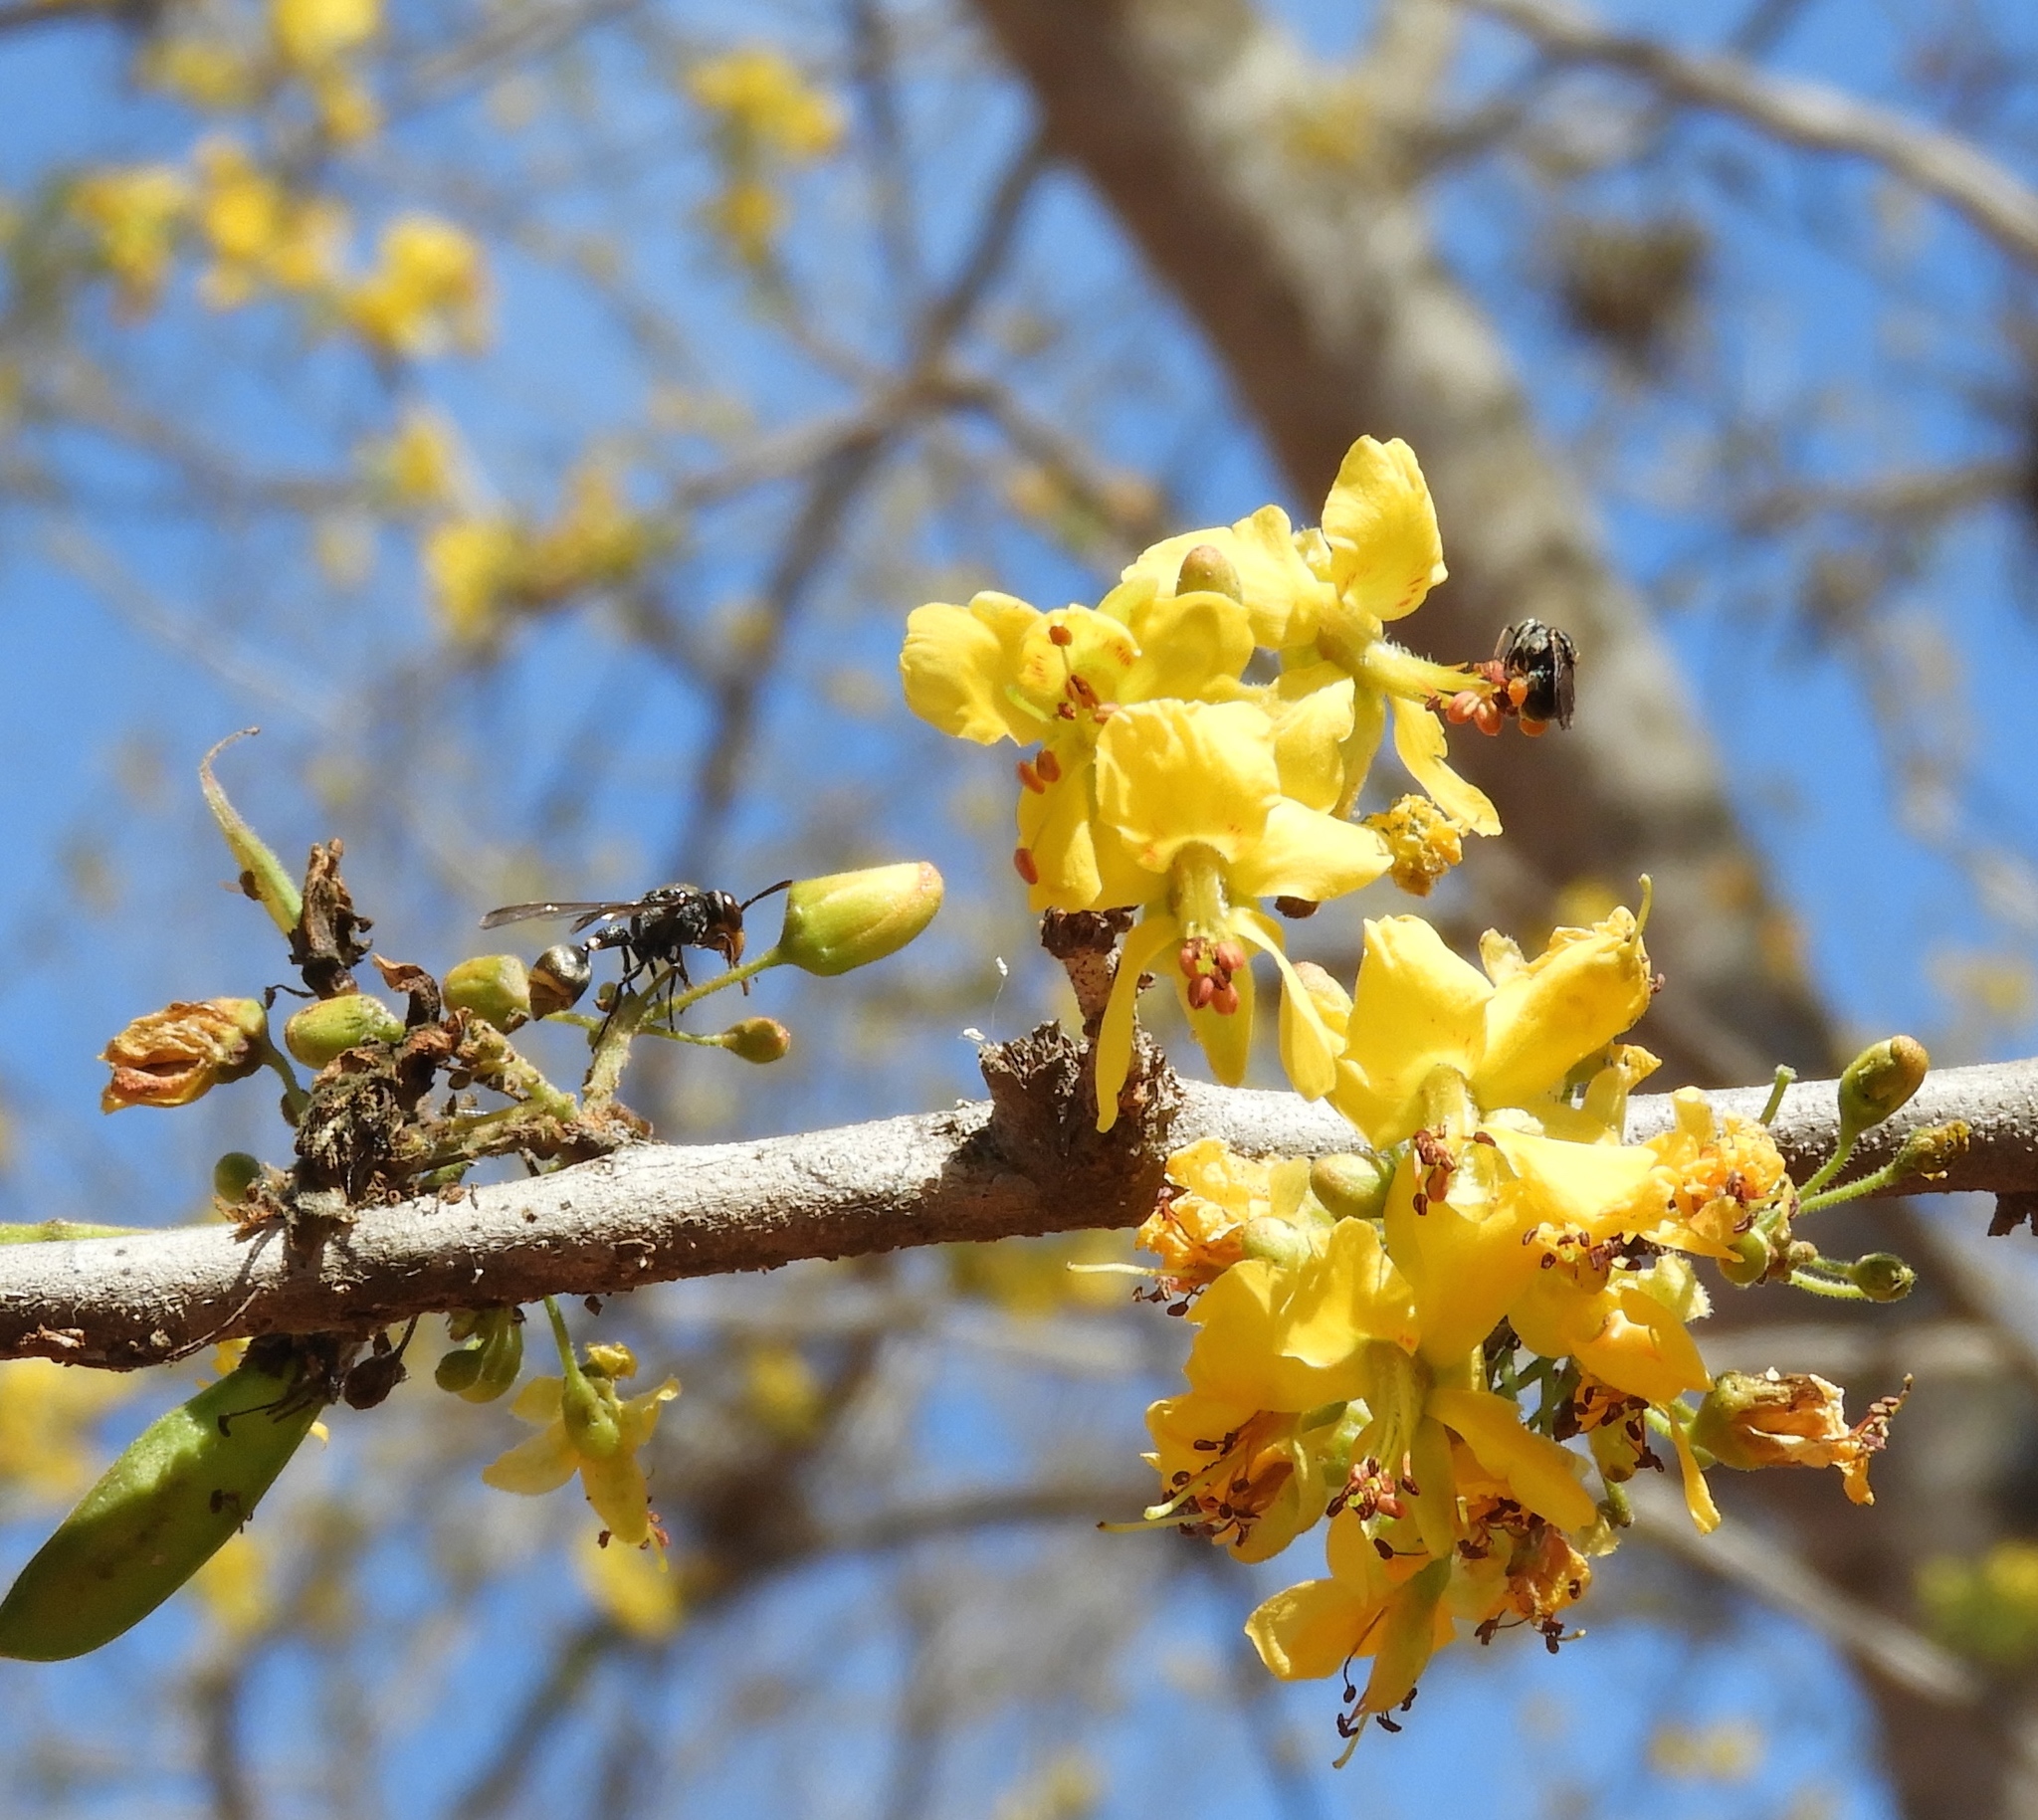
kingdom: Animalia
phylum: Arthropoda
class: Insecta
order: Hymenoptera
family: Apidae
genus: Nannotrigona
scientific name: Nannotrigona perilampoides
